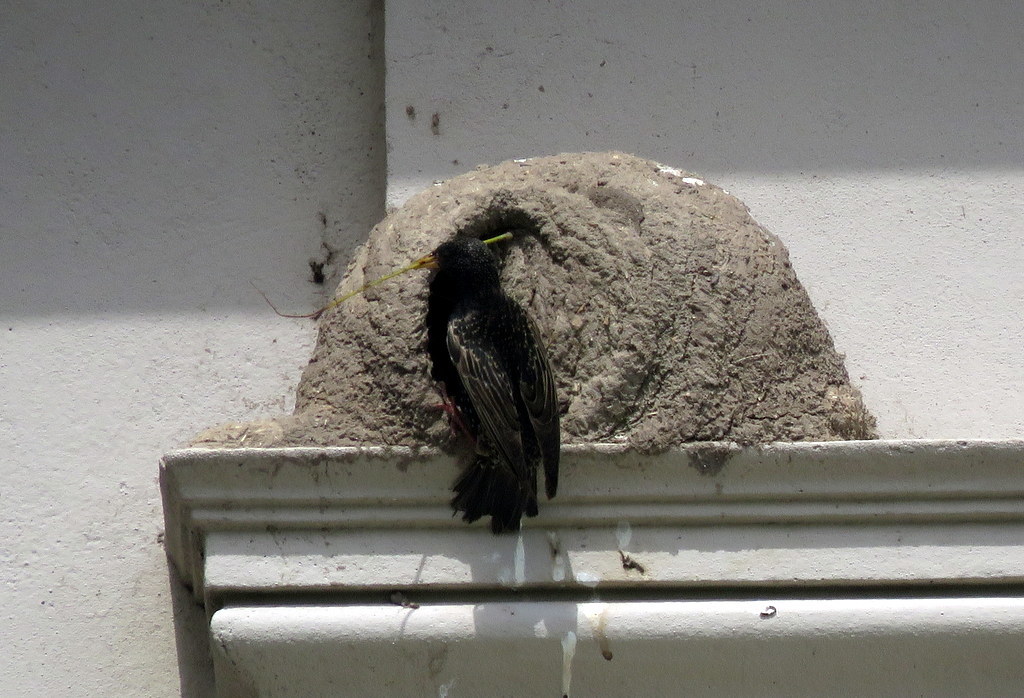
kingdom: Animalia
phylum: Chordata
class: Aves
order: Passeriformes
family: Sturnidae
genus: Sturnus
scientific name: Sturnus vulgaris
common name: Common starling
